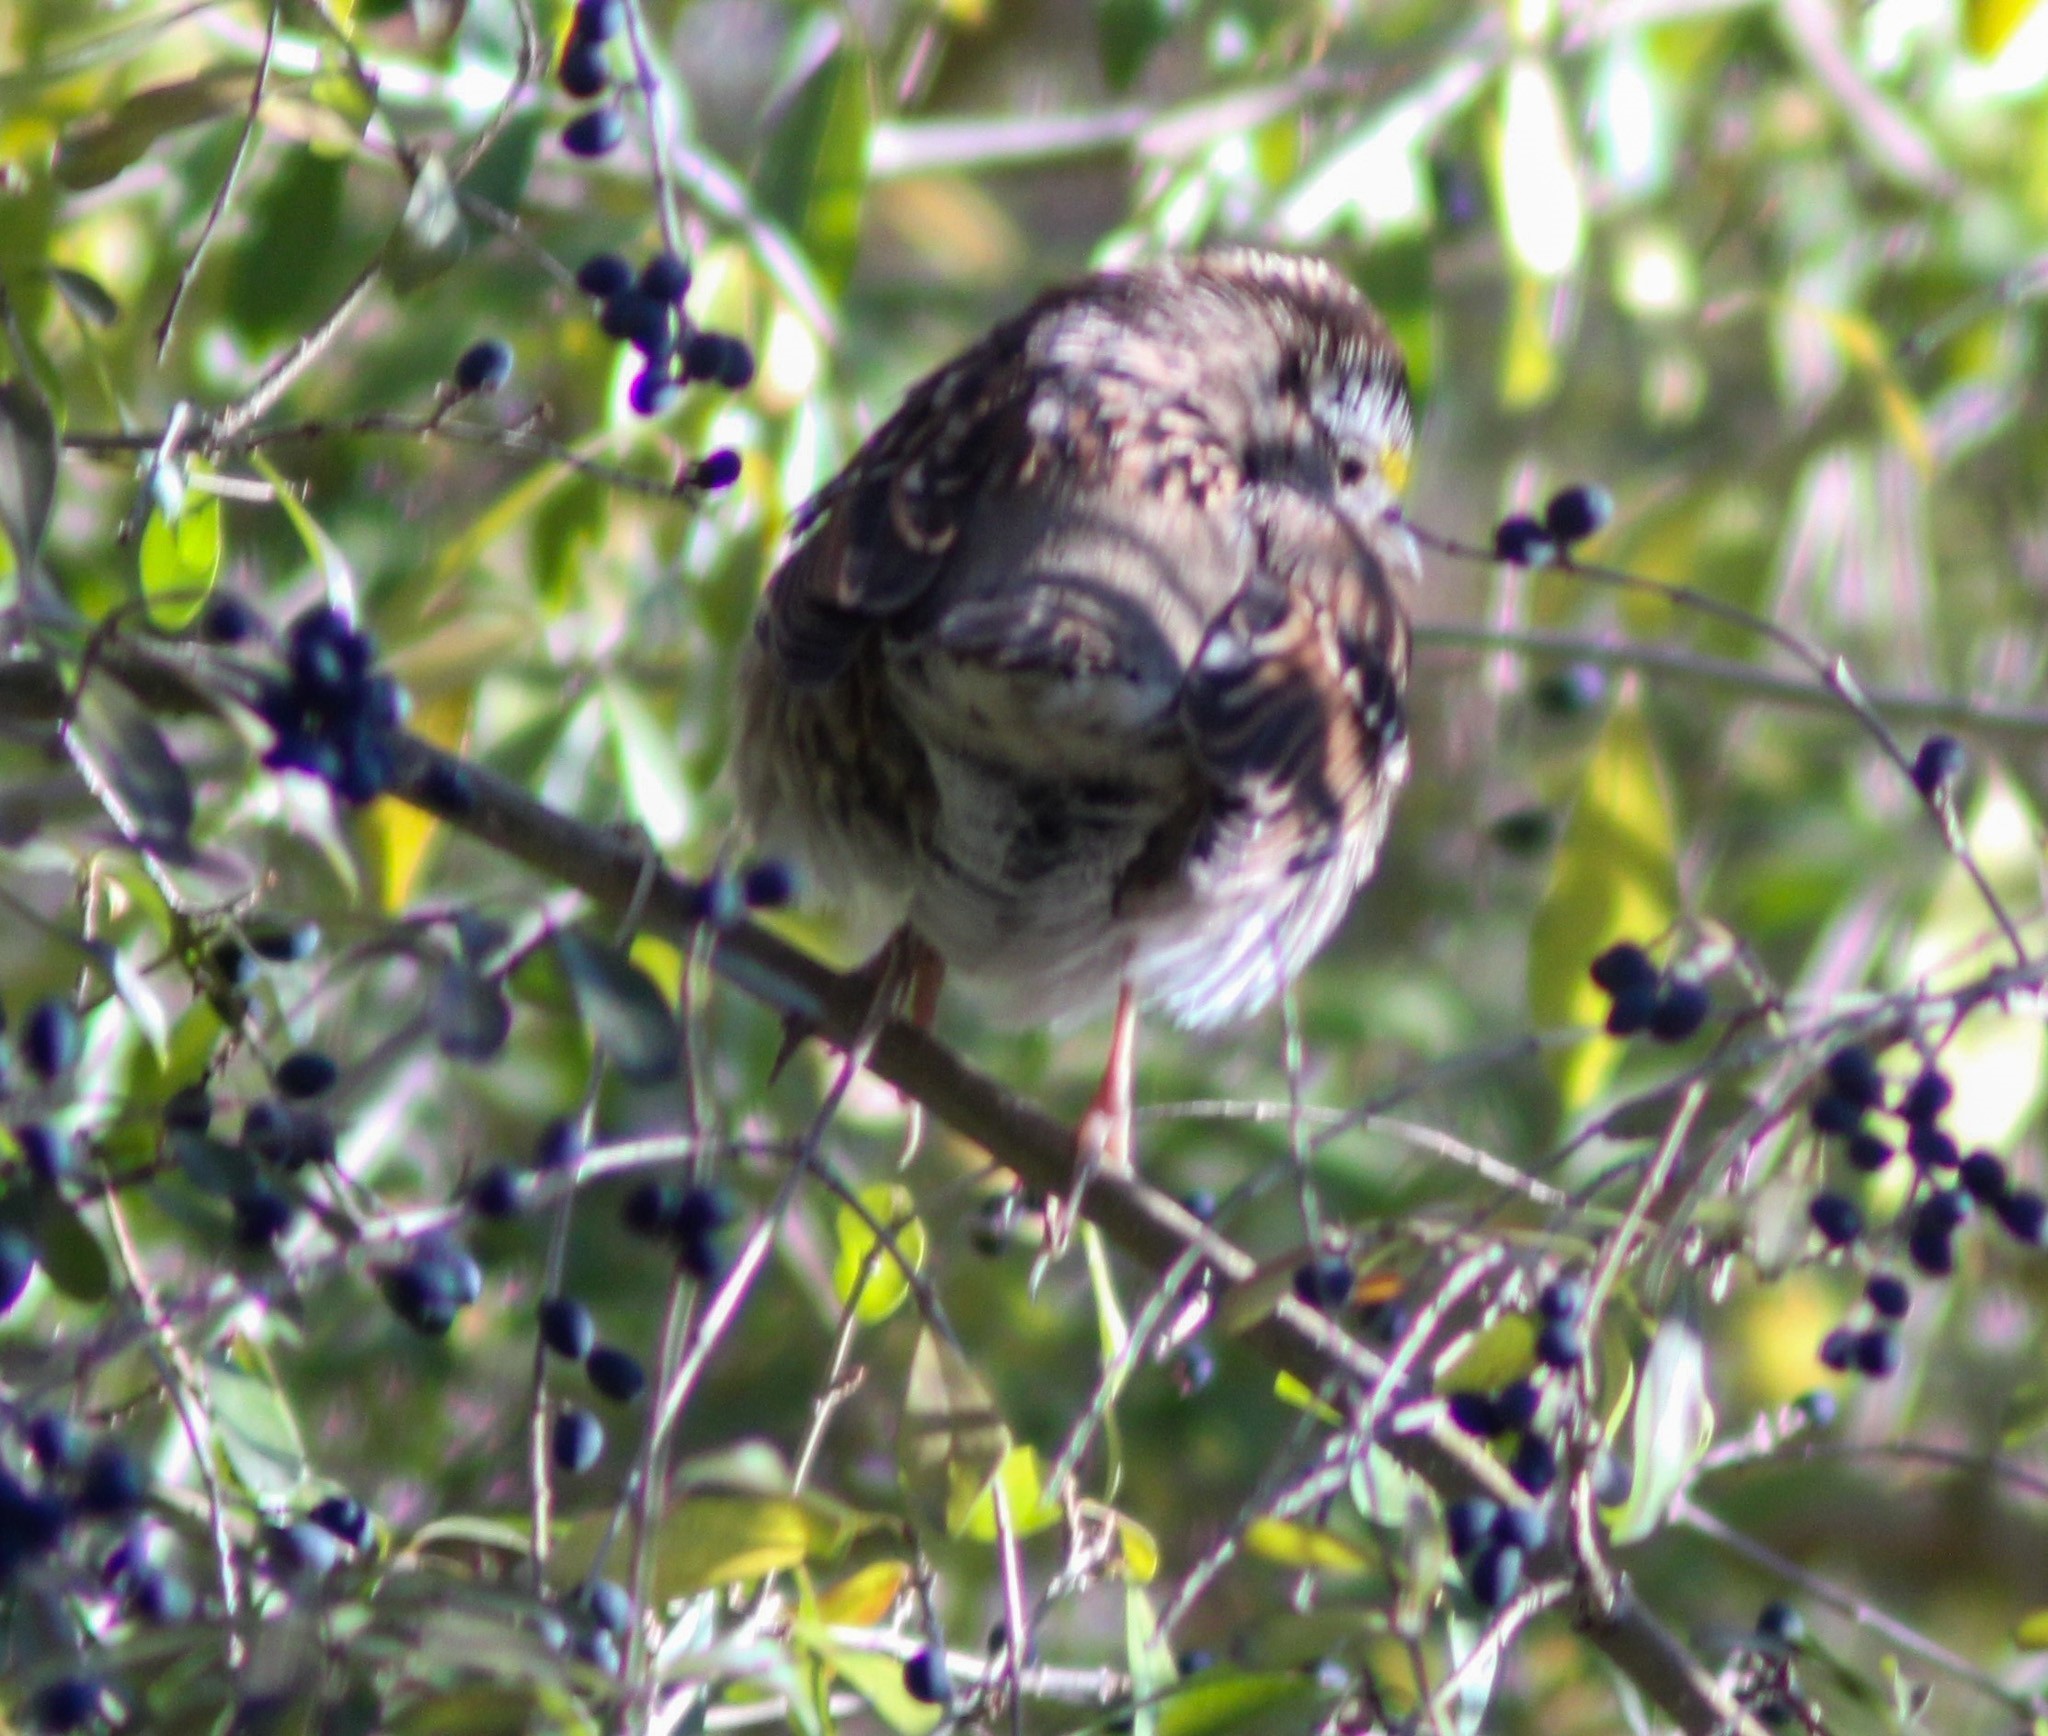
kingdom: Animalia
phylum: Chordata
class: Aves
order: Passeriformes
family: Passerellidae
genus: Zonotrichia
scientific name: Zonotrichia albicollis
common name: White-throated sparrow
